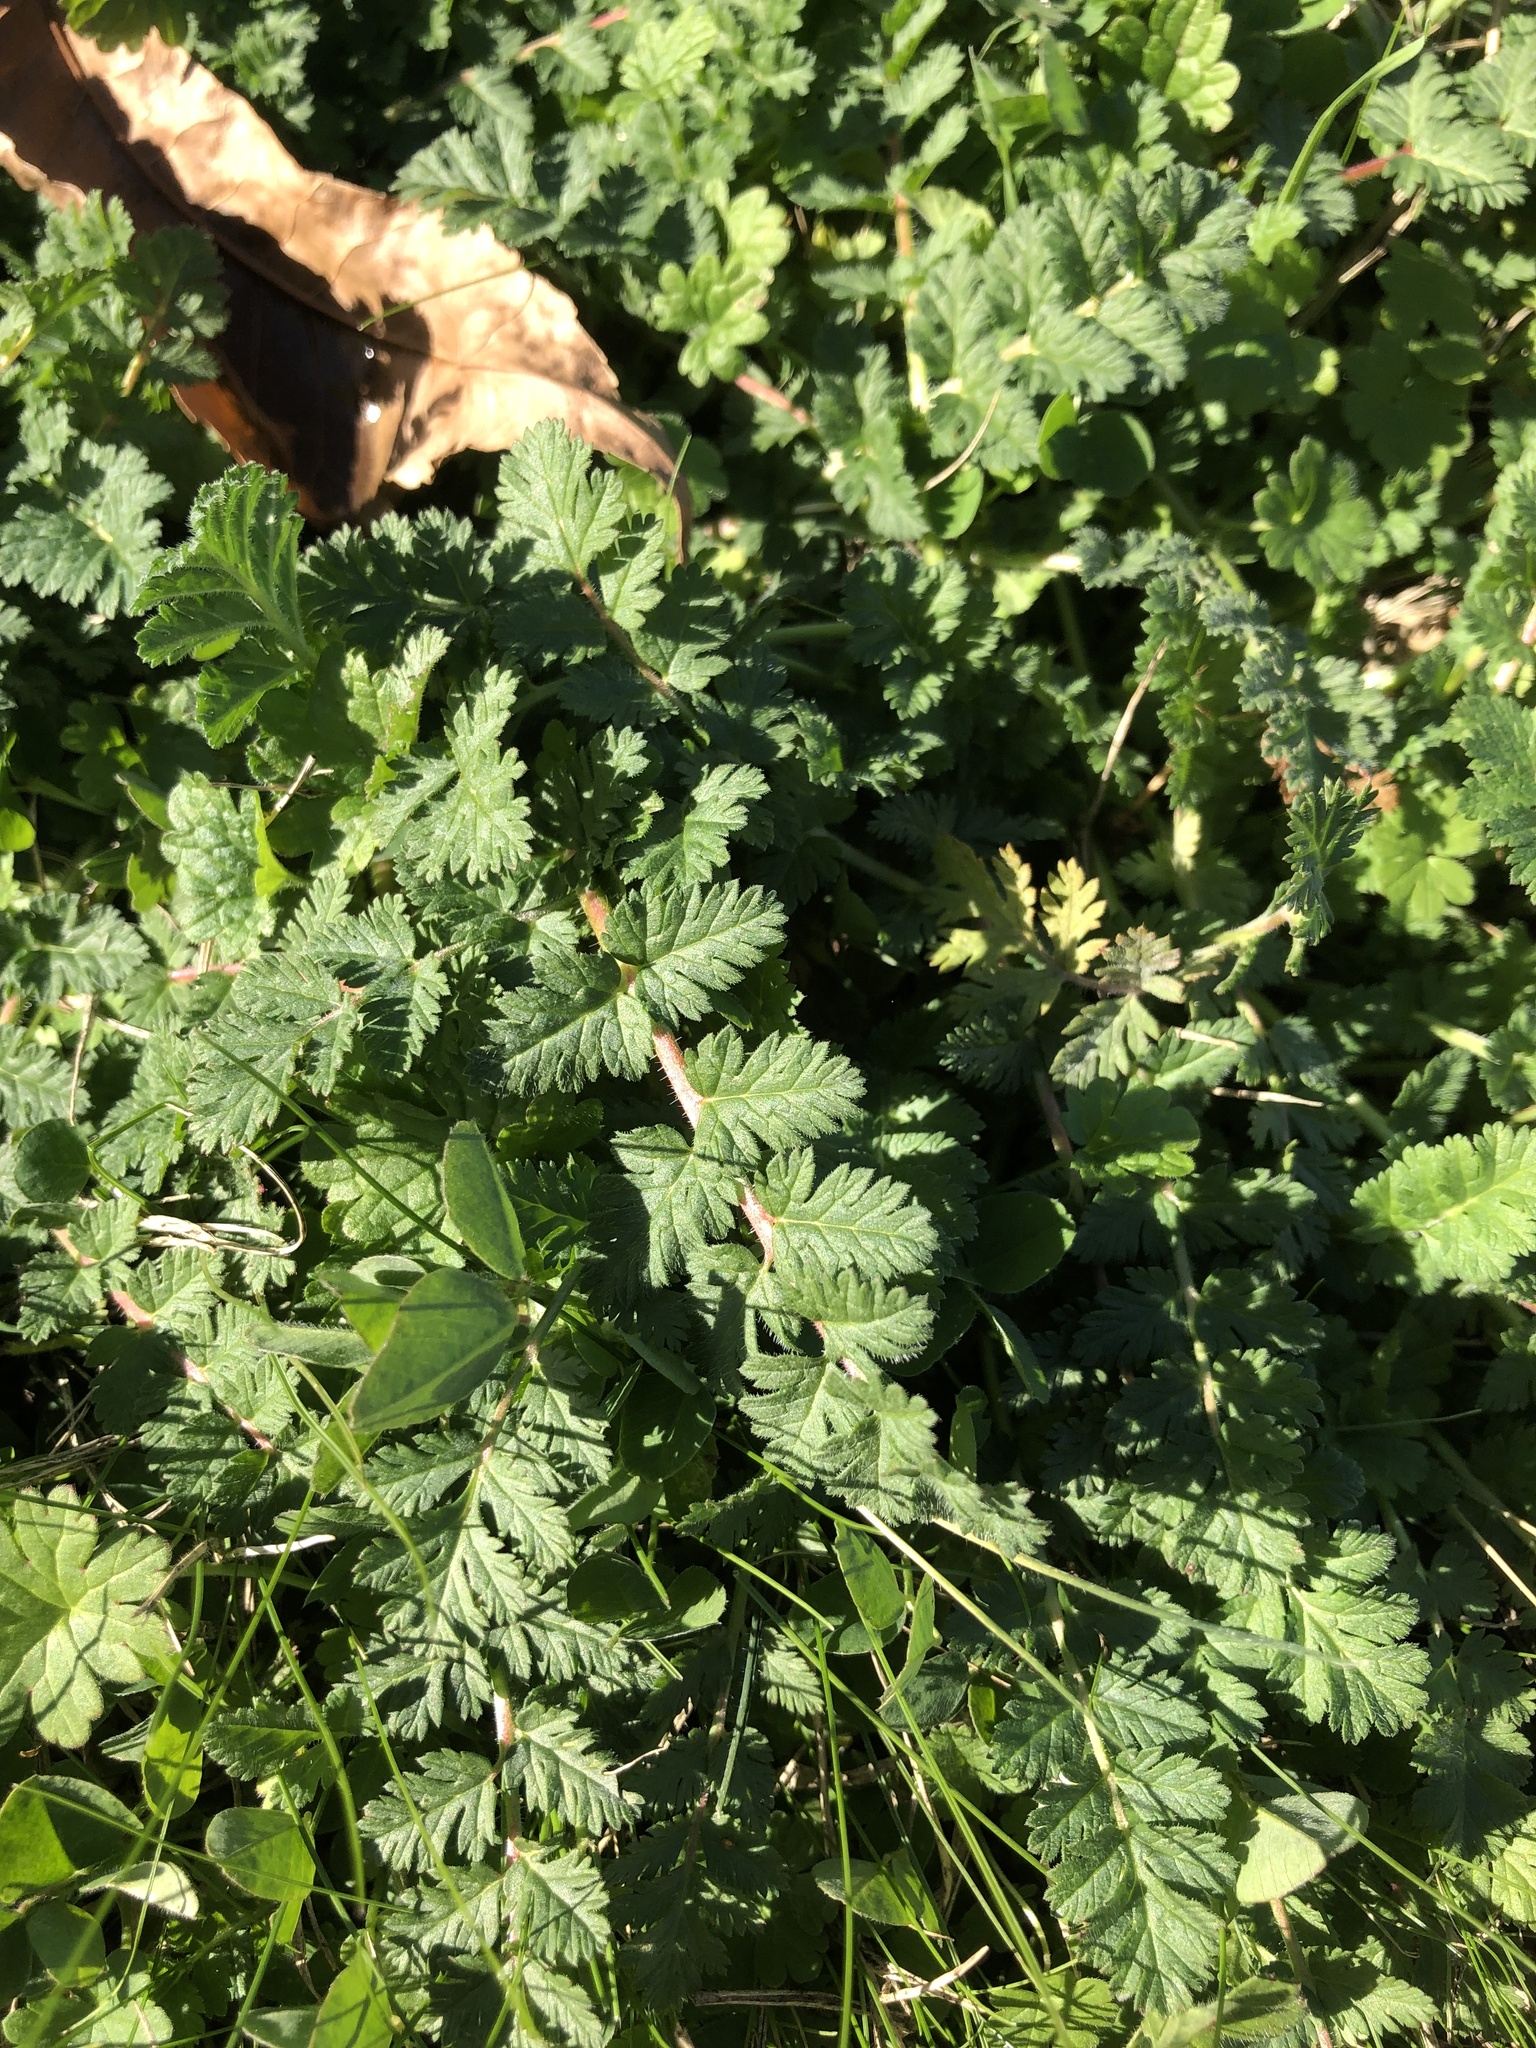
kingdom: Plantae
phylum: Tracheophyta
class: Magnoliopsida
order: Geraniales
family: Geraniaceae
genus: Erodium
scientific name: Erodium cicutarium
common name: Common stork's-bill
